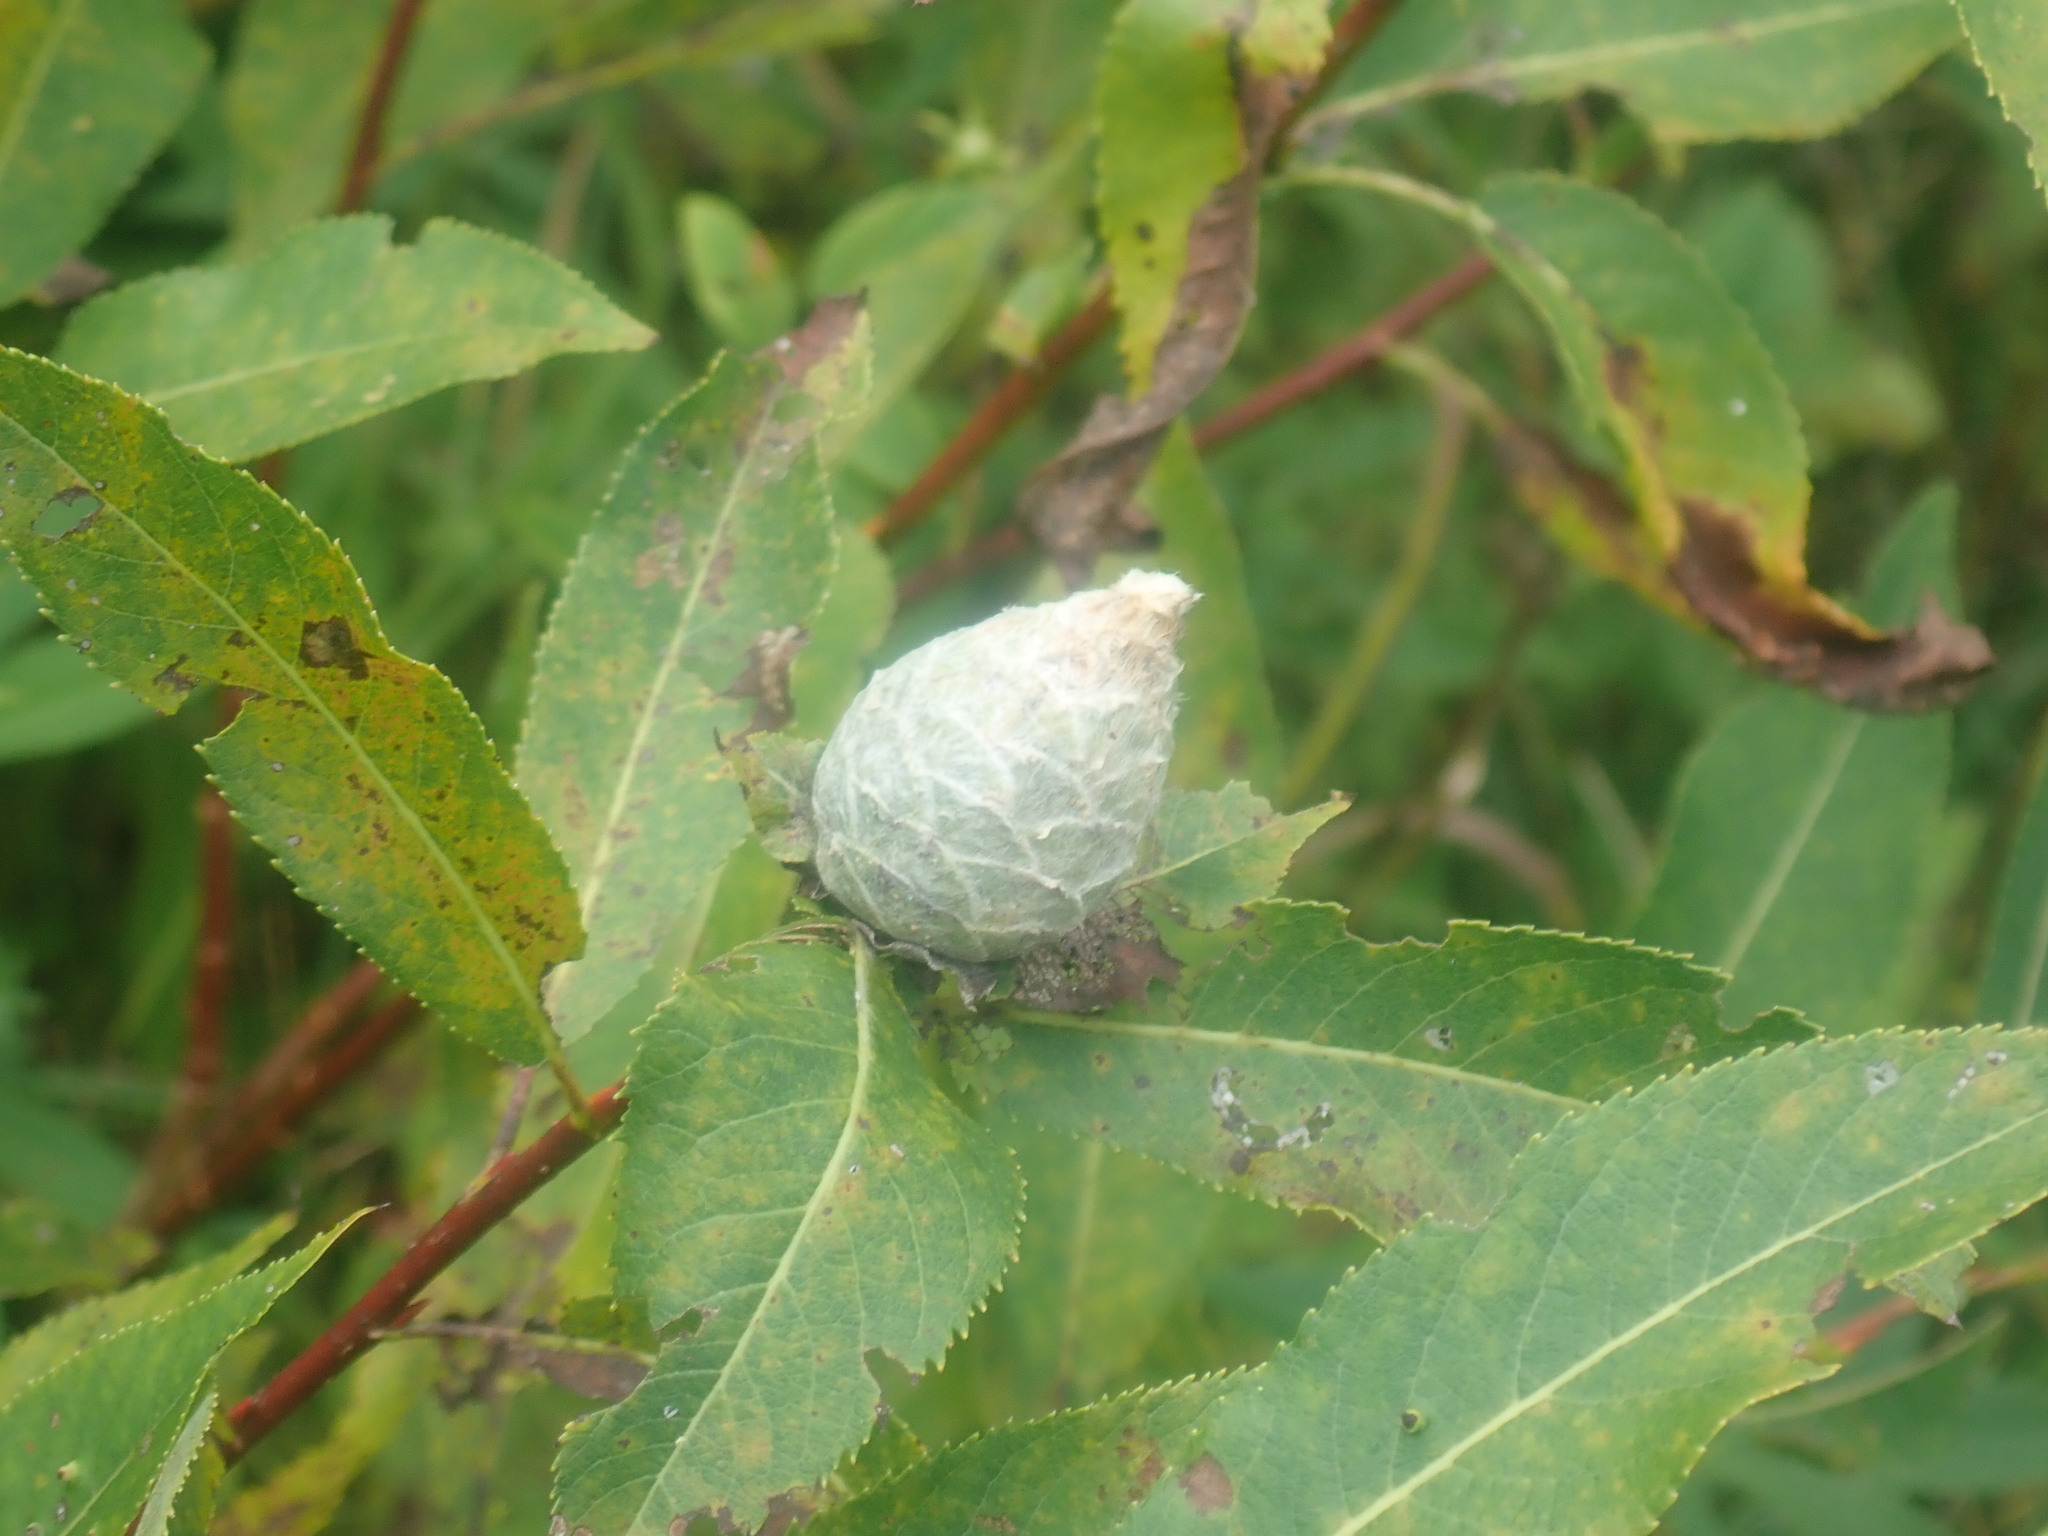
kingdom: Animalia
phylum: Arthropoda
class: Insecta
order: Diptera
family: Cecidomyiidae
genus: Rabdophaga
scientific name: Rabdophaga strobiloides
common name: Willow pinecone gall midge
